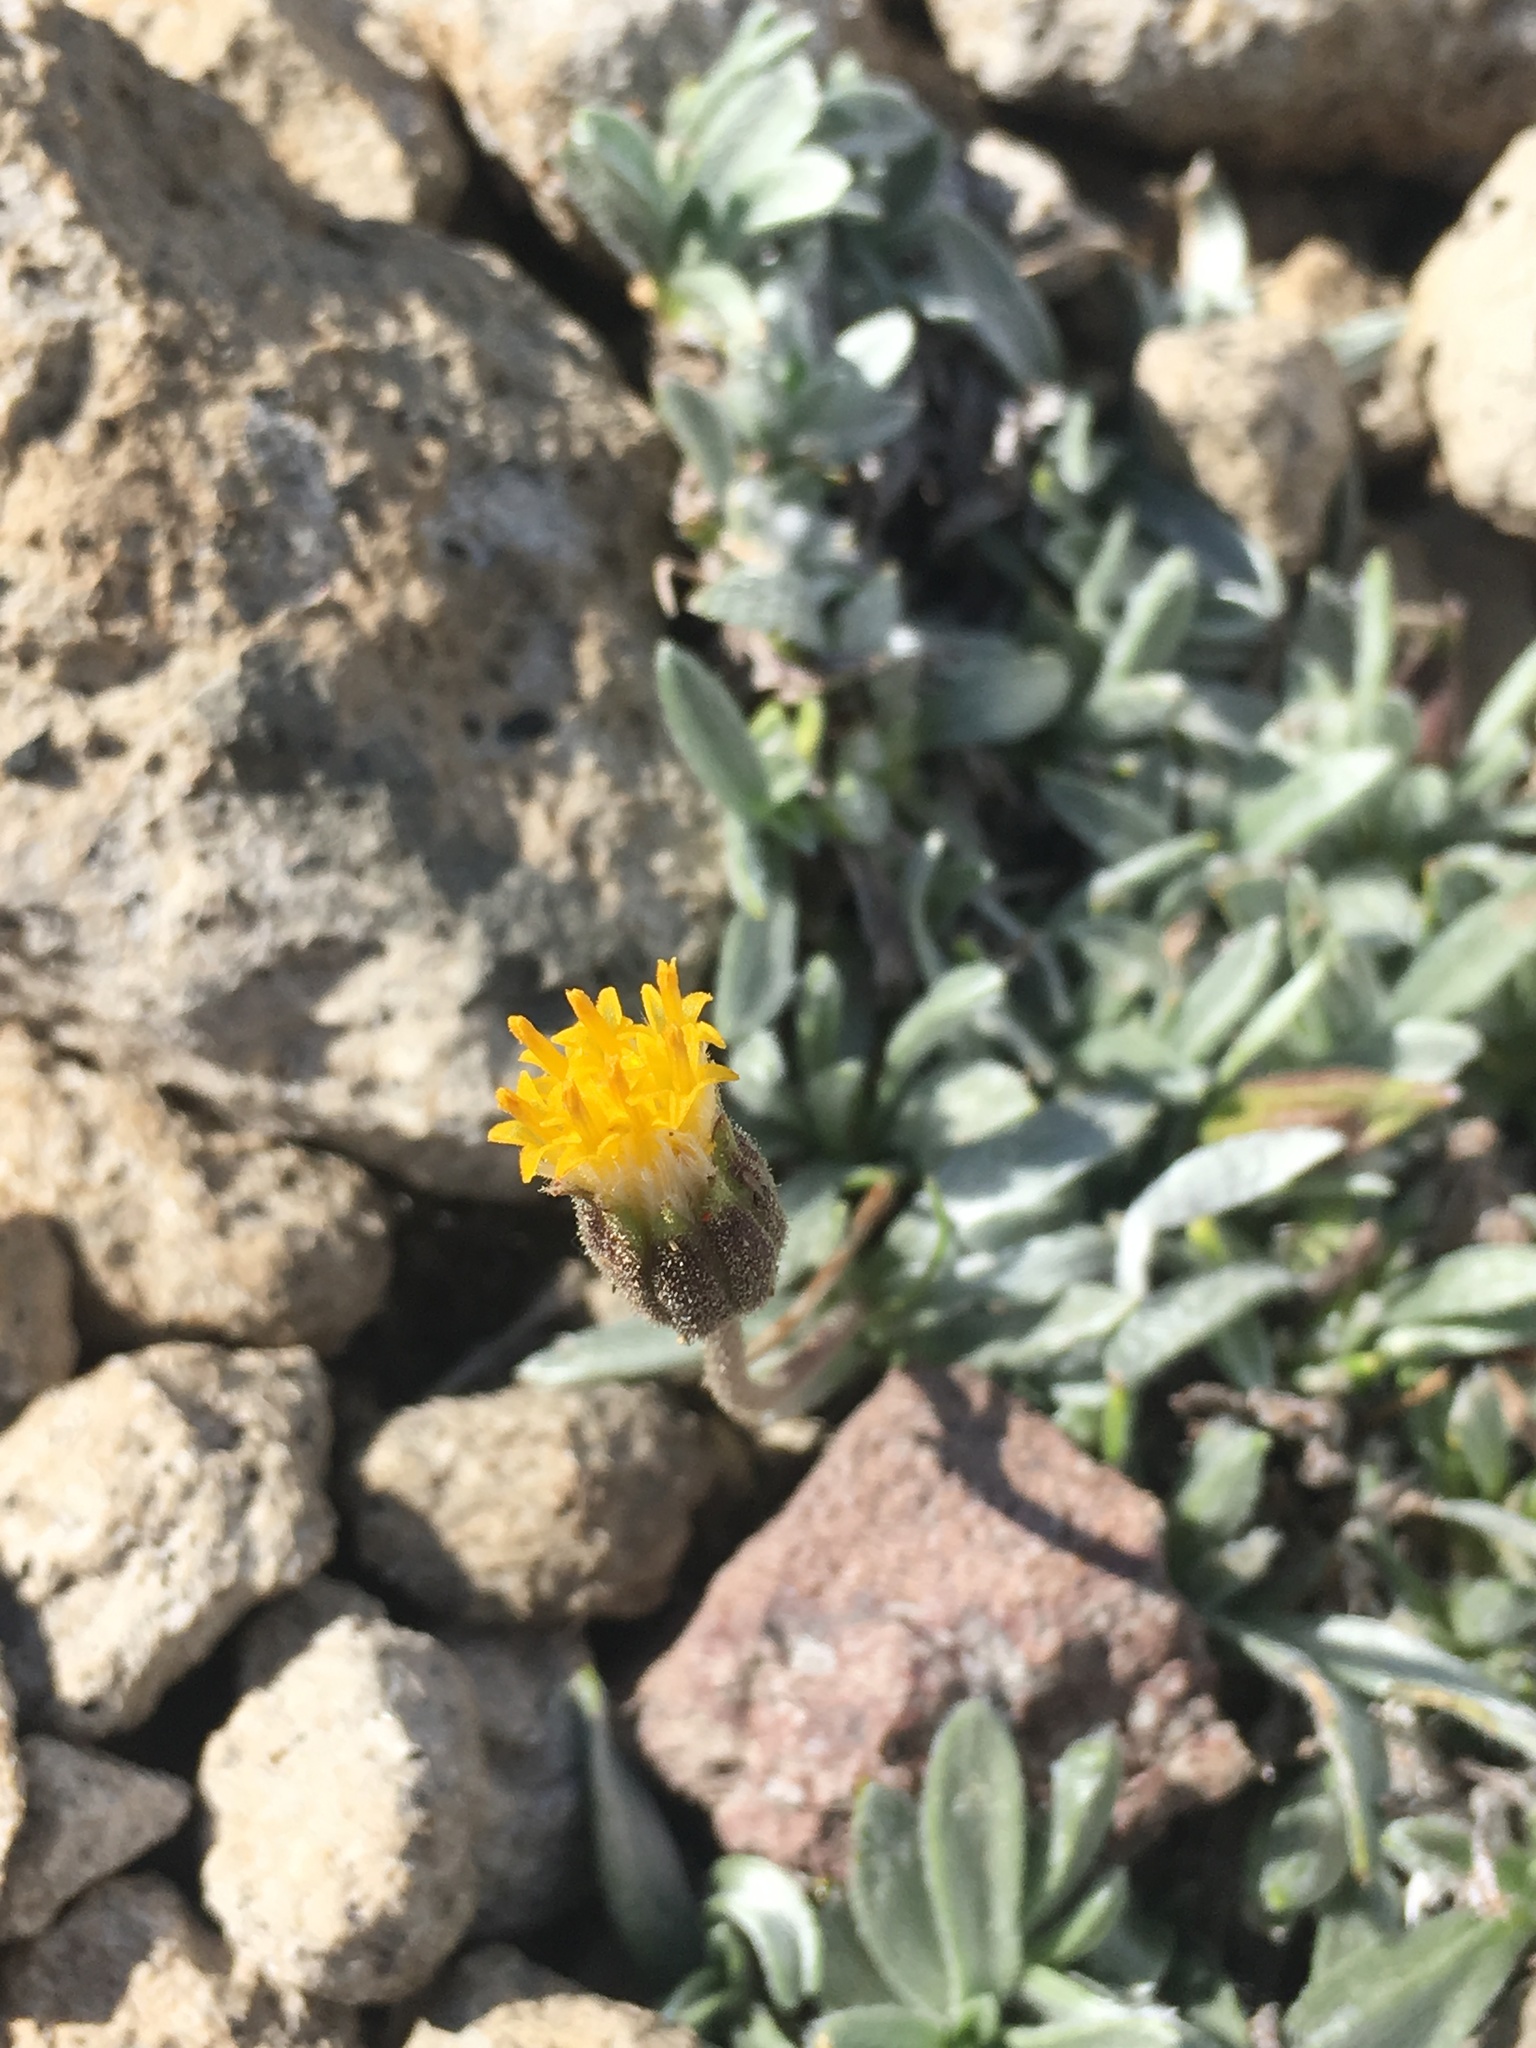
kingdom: Plantae
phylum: Tracheophyta
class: Magnoliopsida
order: Asterales
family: Asteraceae
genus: Raillardella
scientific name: Raillardella argentea
